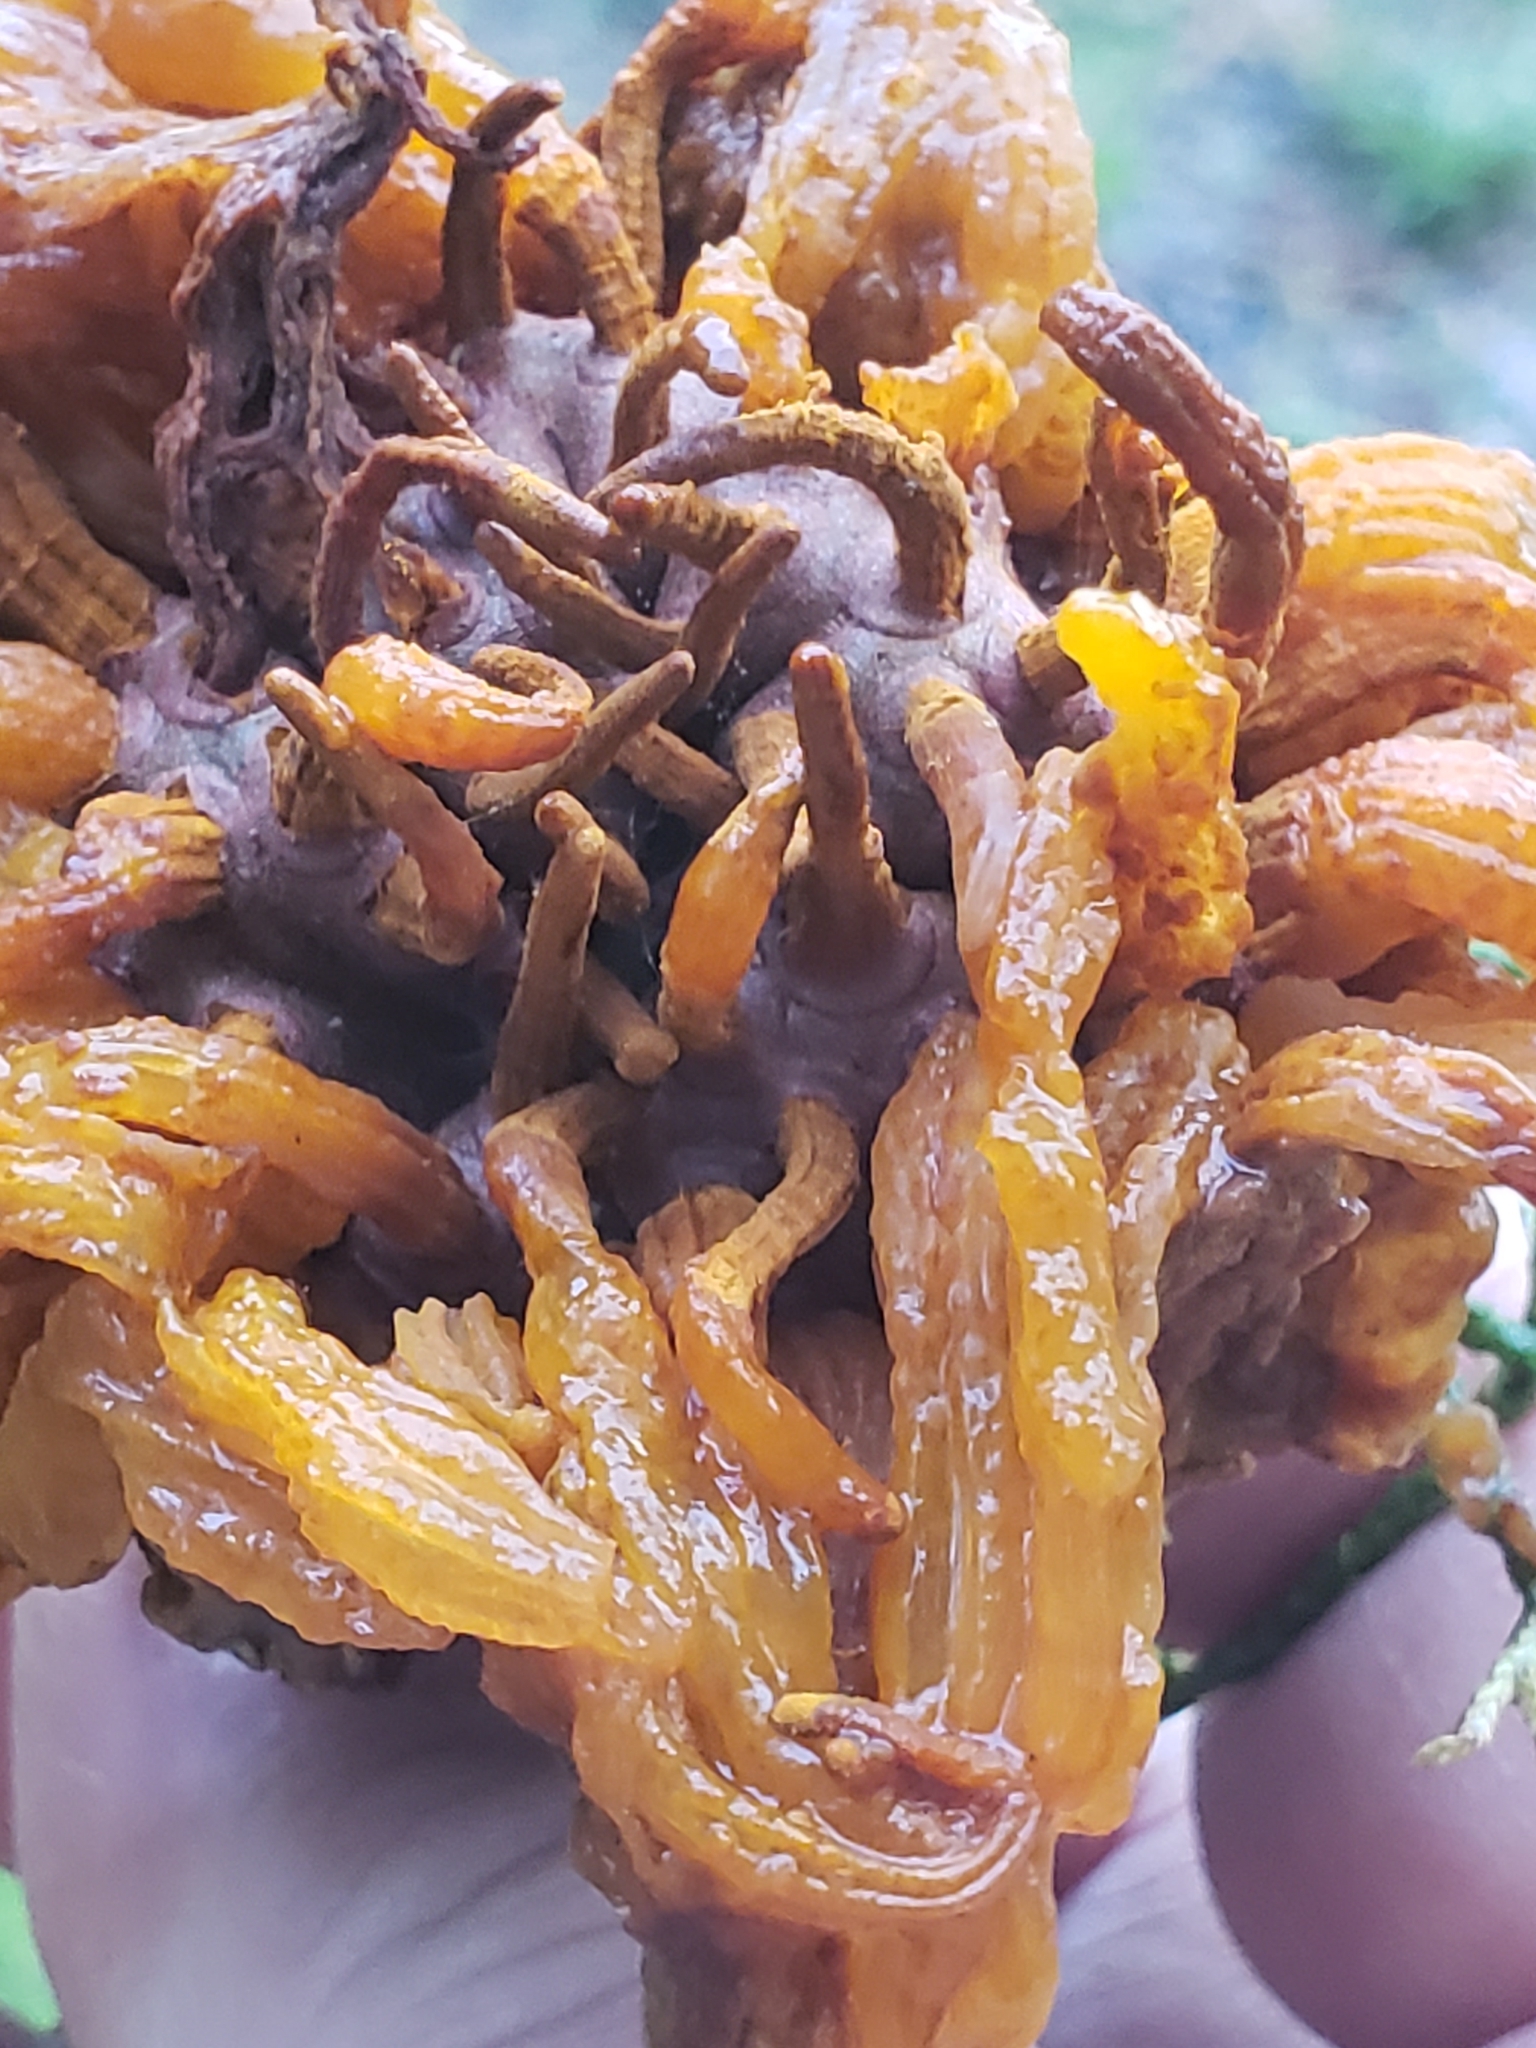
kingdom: Fungi
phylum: Basidiomycota
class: Pucciniomycetes
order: Pucciniales
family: Gymnosporangiaceae
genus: Gymnosporangium
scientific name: Gymnosporangium juniperi-virginianae
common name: Juniper-apple rust
